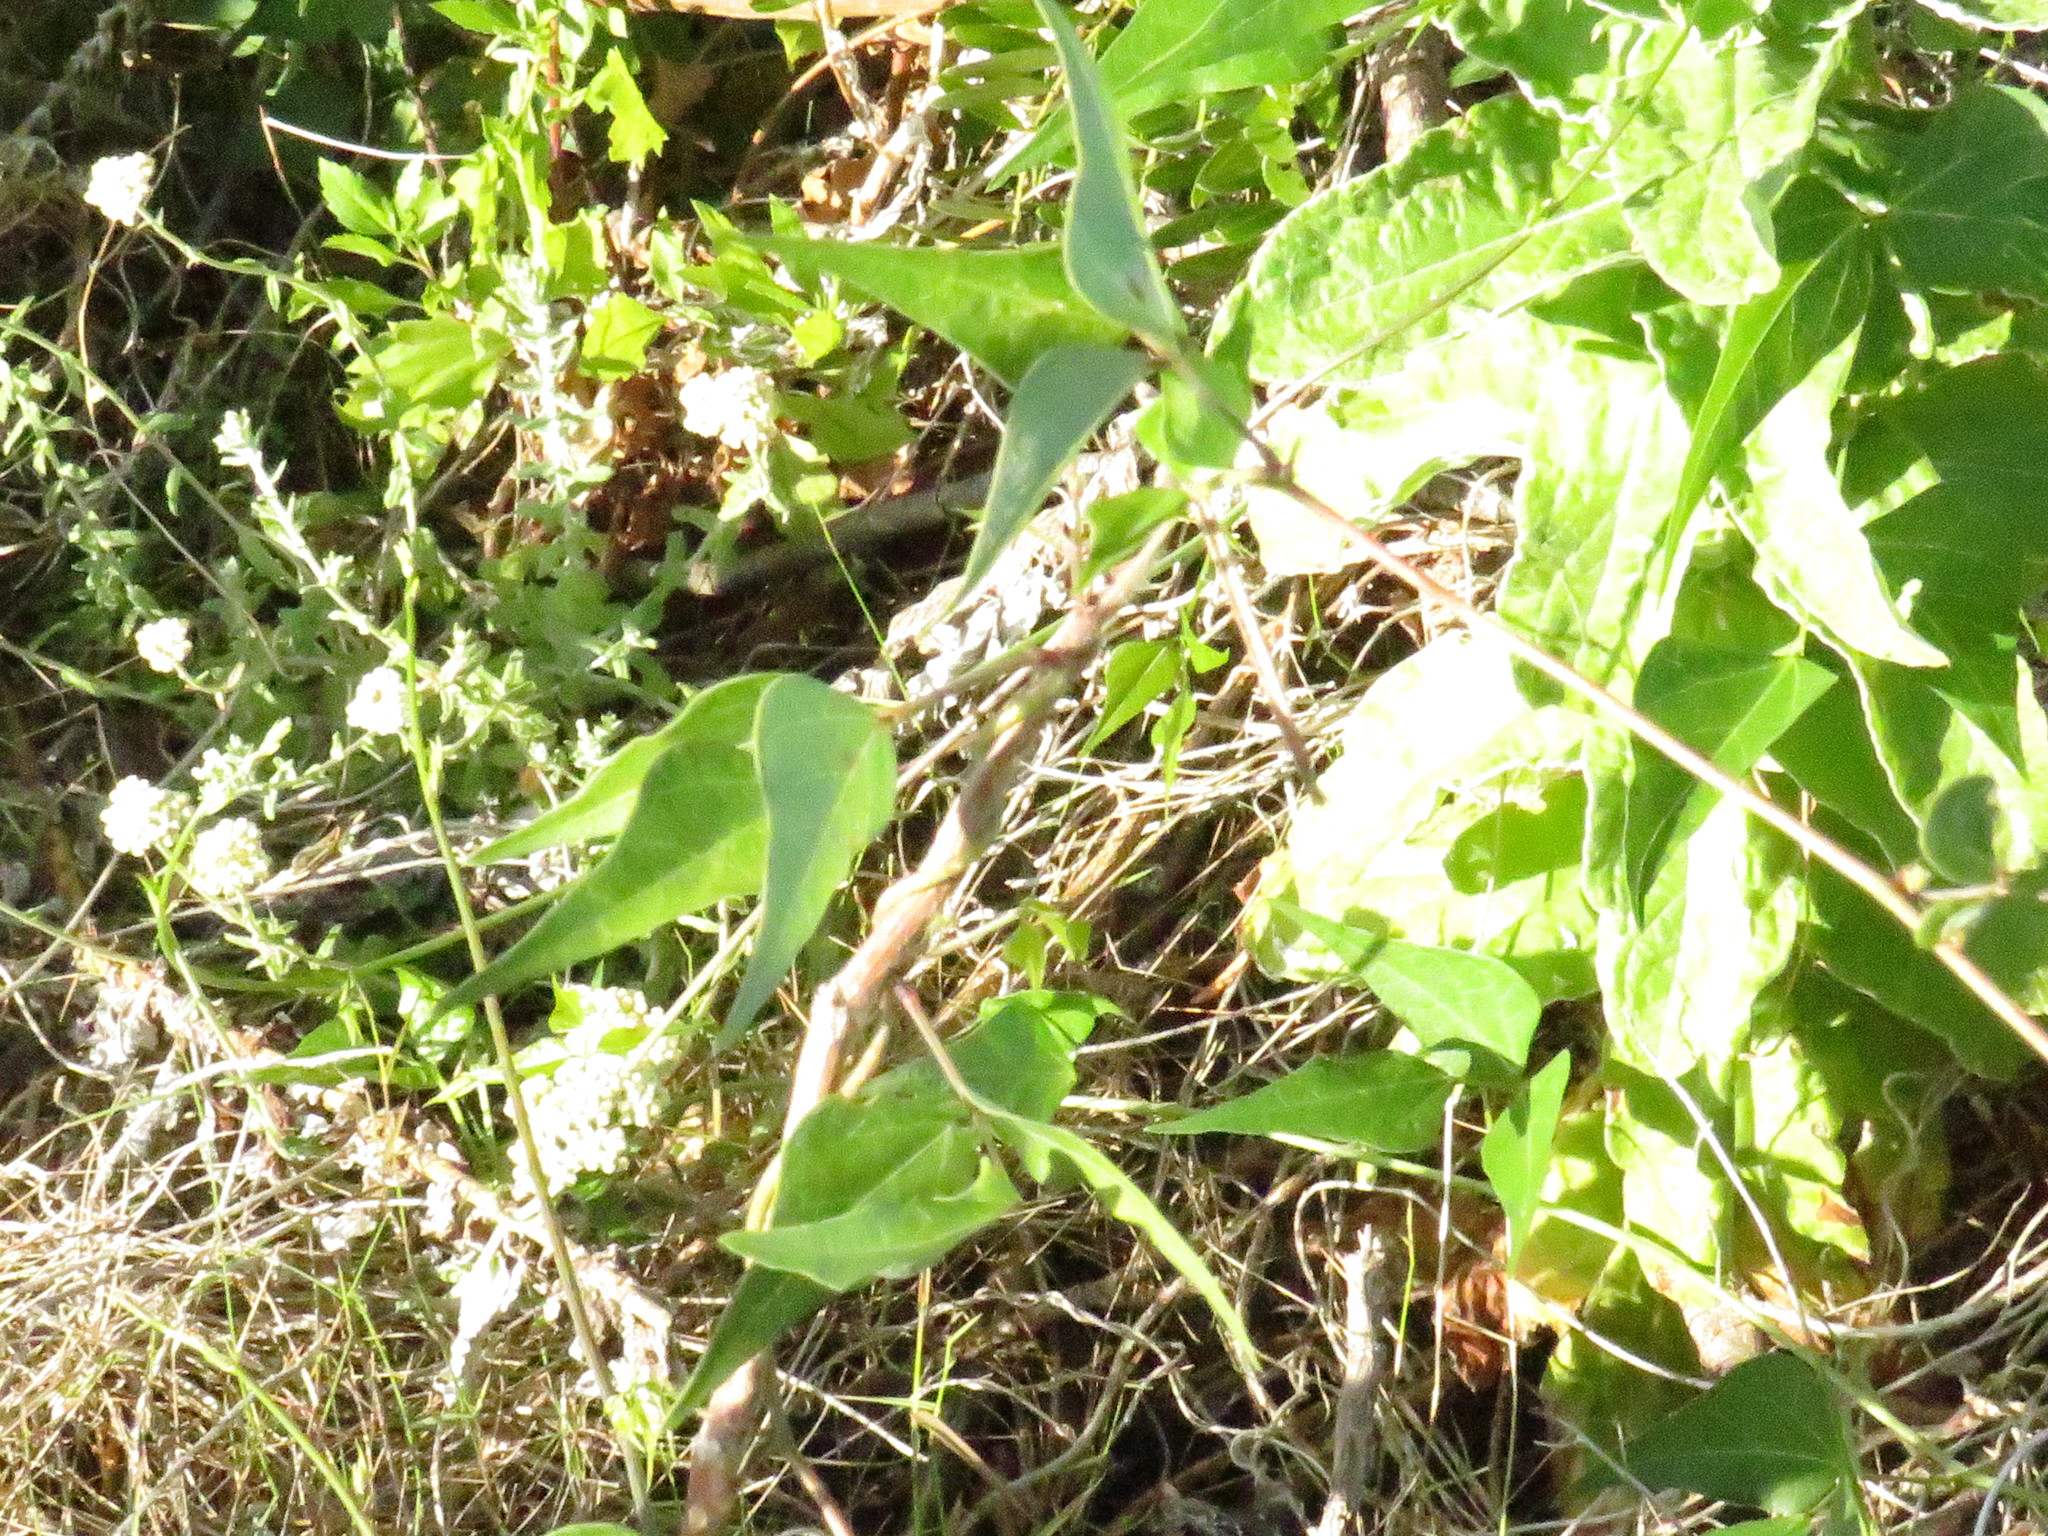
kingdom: Plantae
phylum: Tracheophyta
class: Magnoliopsida
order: Fabales
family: Fabaceae
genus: Dipogon
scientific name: Dipogon lignosus
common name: Okie bean
